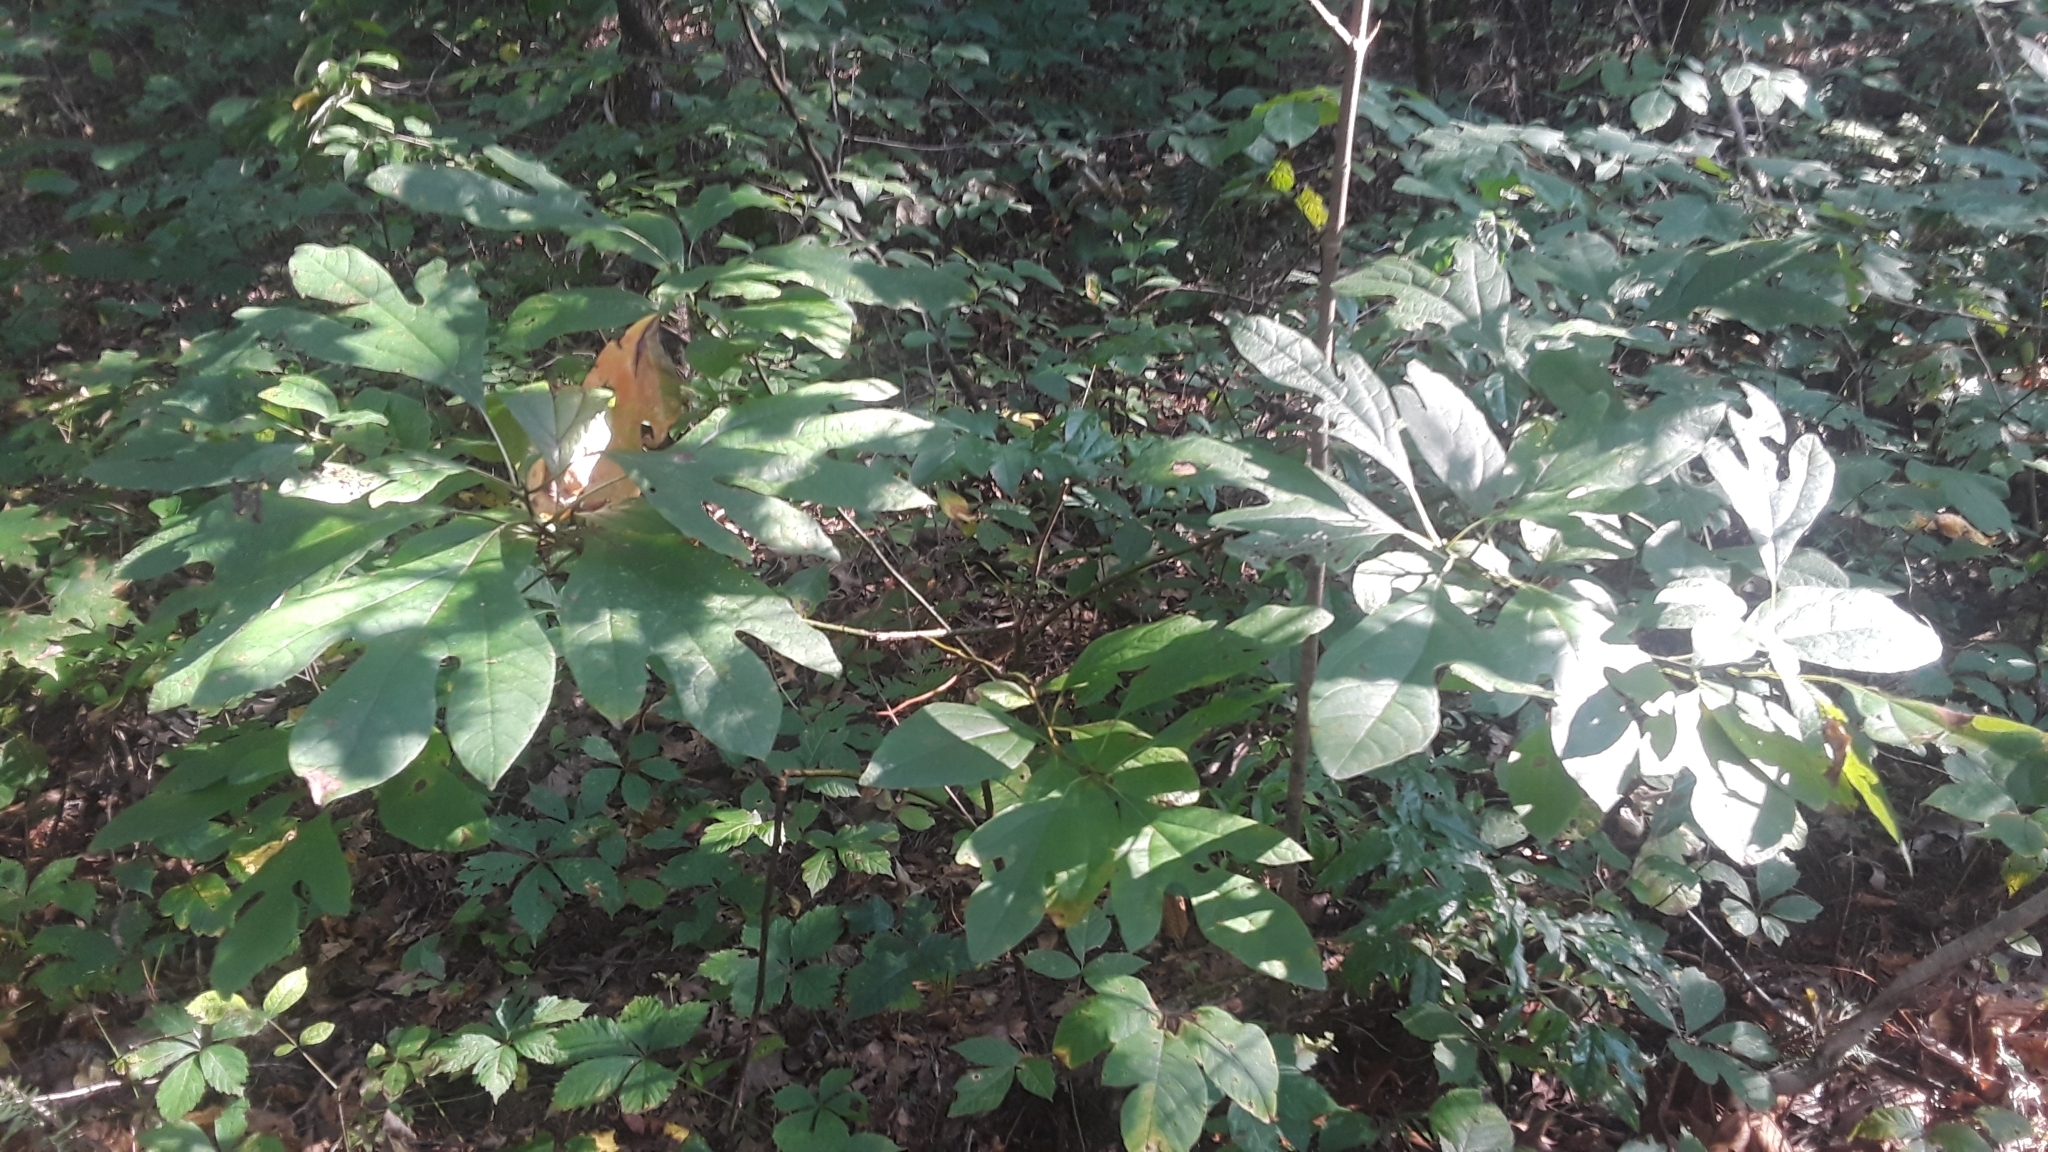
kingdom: Plantae
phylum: Tracheophyta
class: Magnoliopsida
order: Laurales
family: Lauraceae
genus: Sassafras
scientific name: Sassafras albidum
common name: Sassafras
